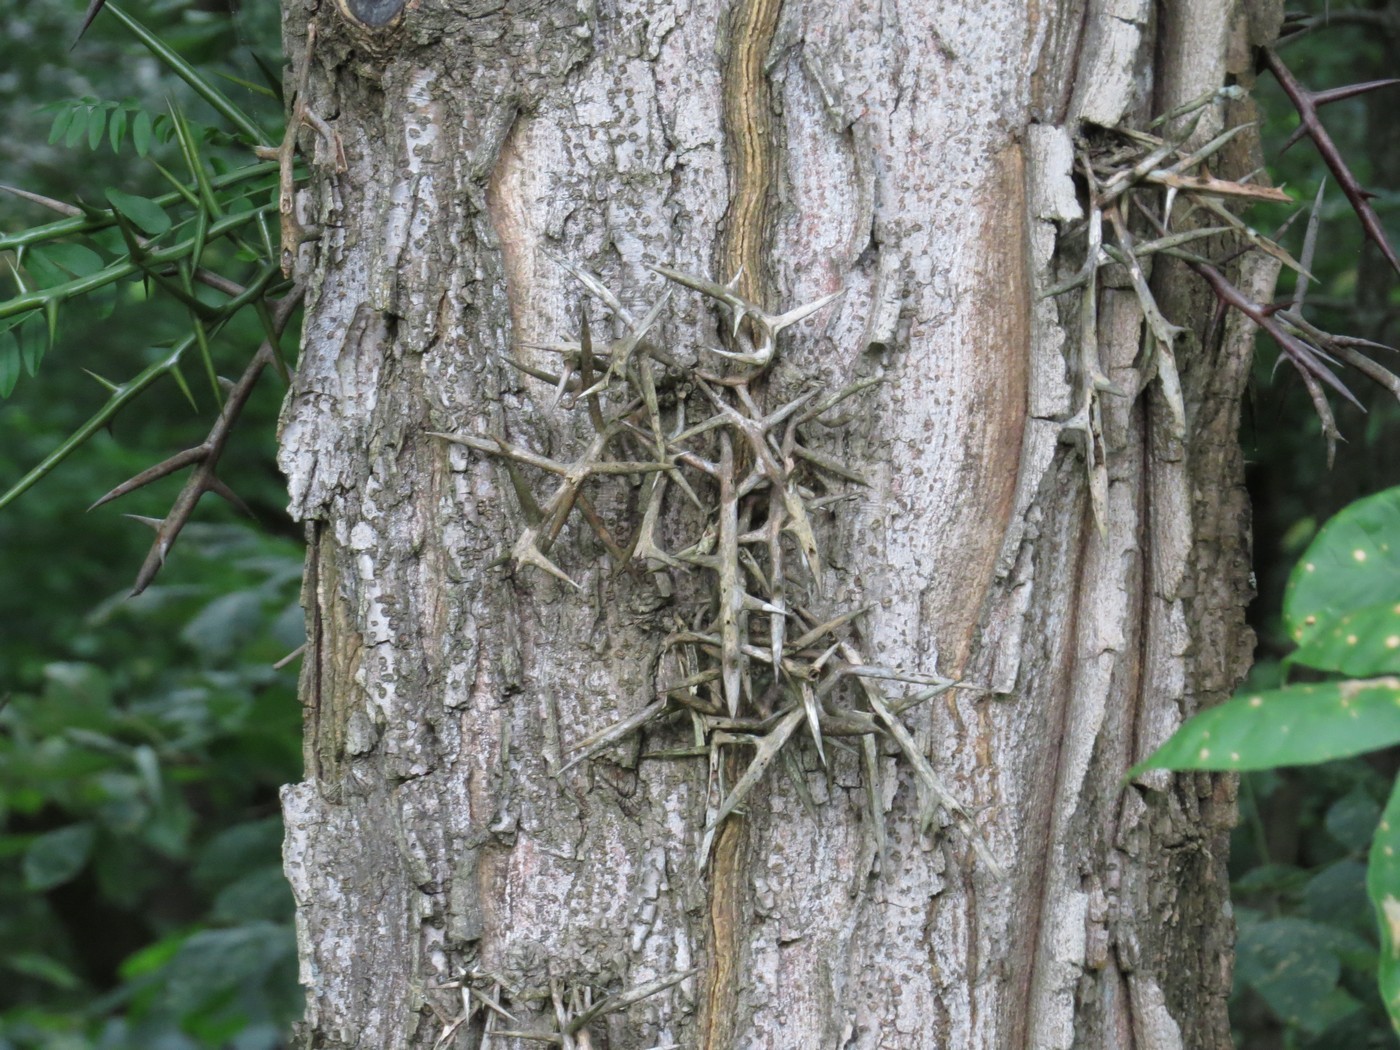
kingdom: Plantae
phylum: Tracheophyta
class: Magnoliopsida
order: Fabales
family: Fabaceae
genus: Gleditsia
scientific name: Gleditsia triacanthos
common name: Common honeylocust
